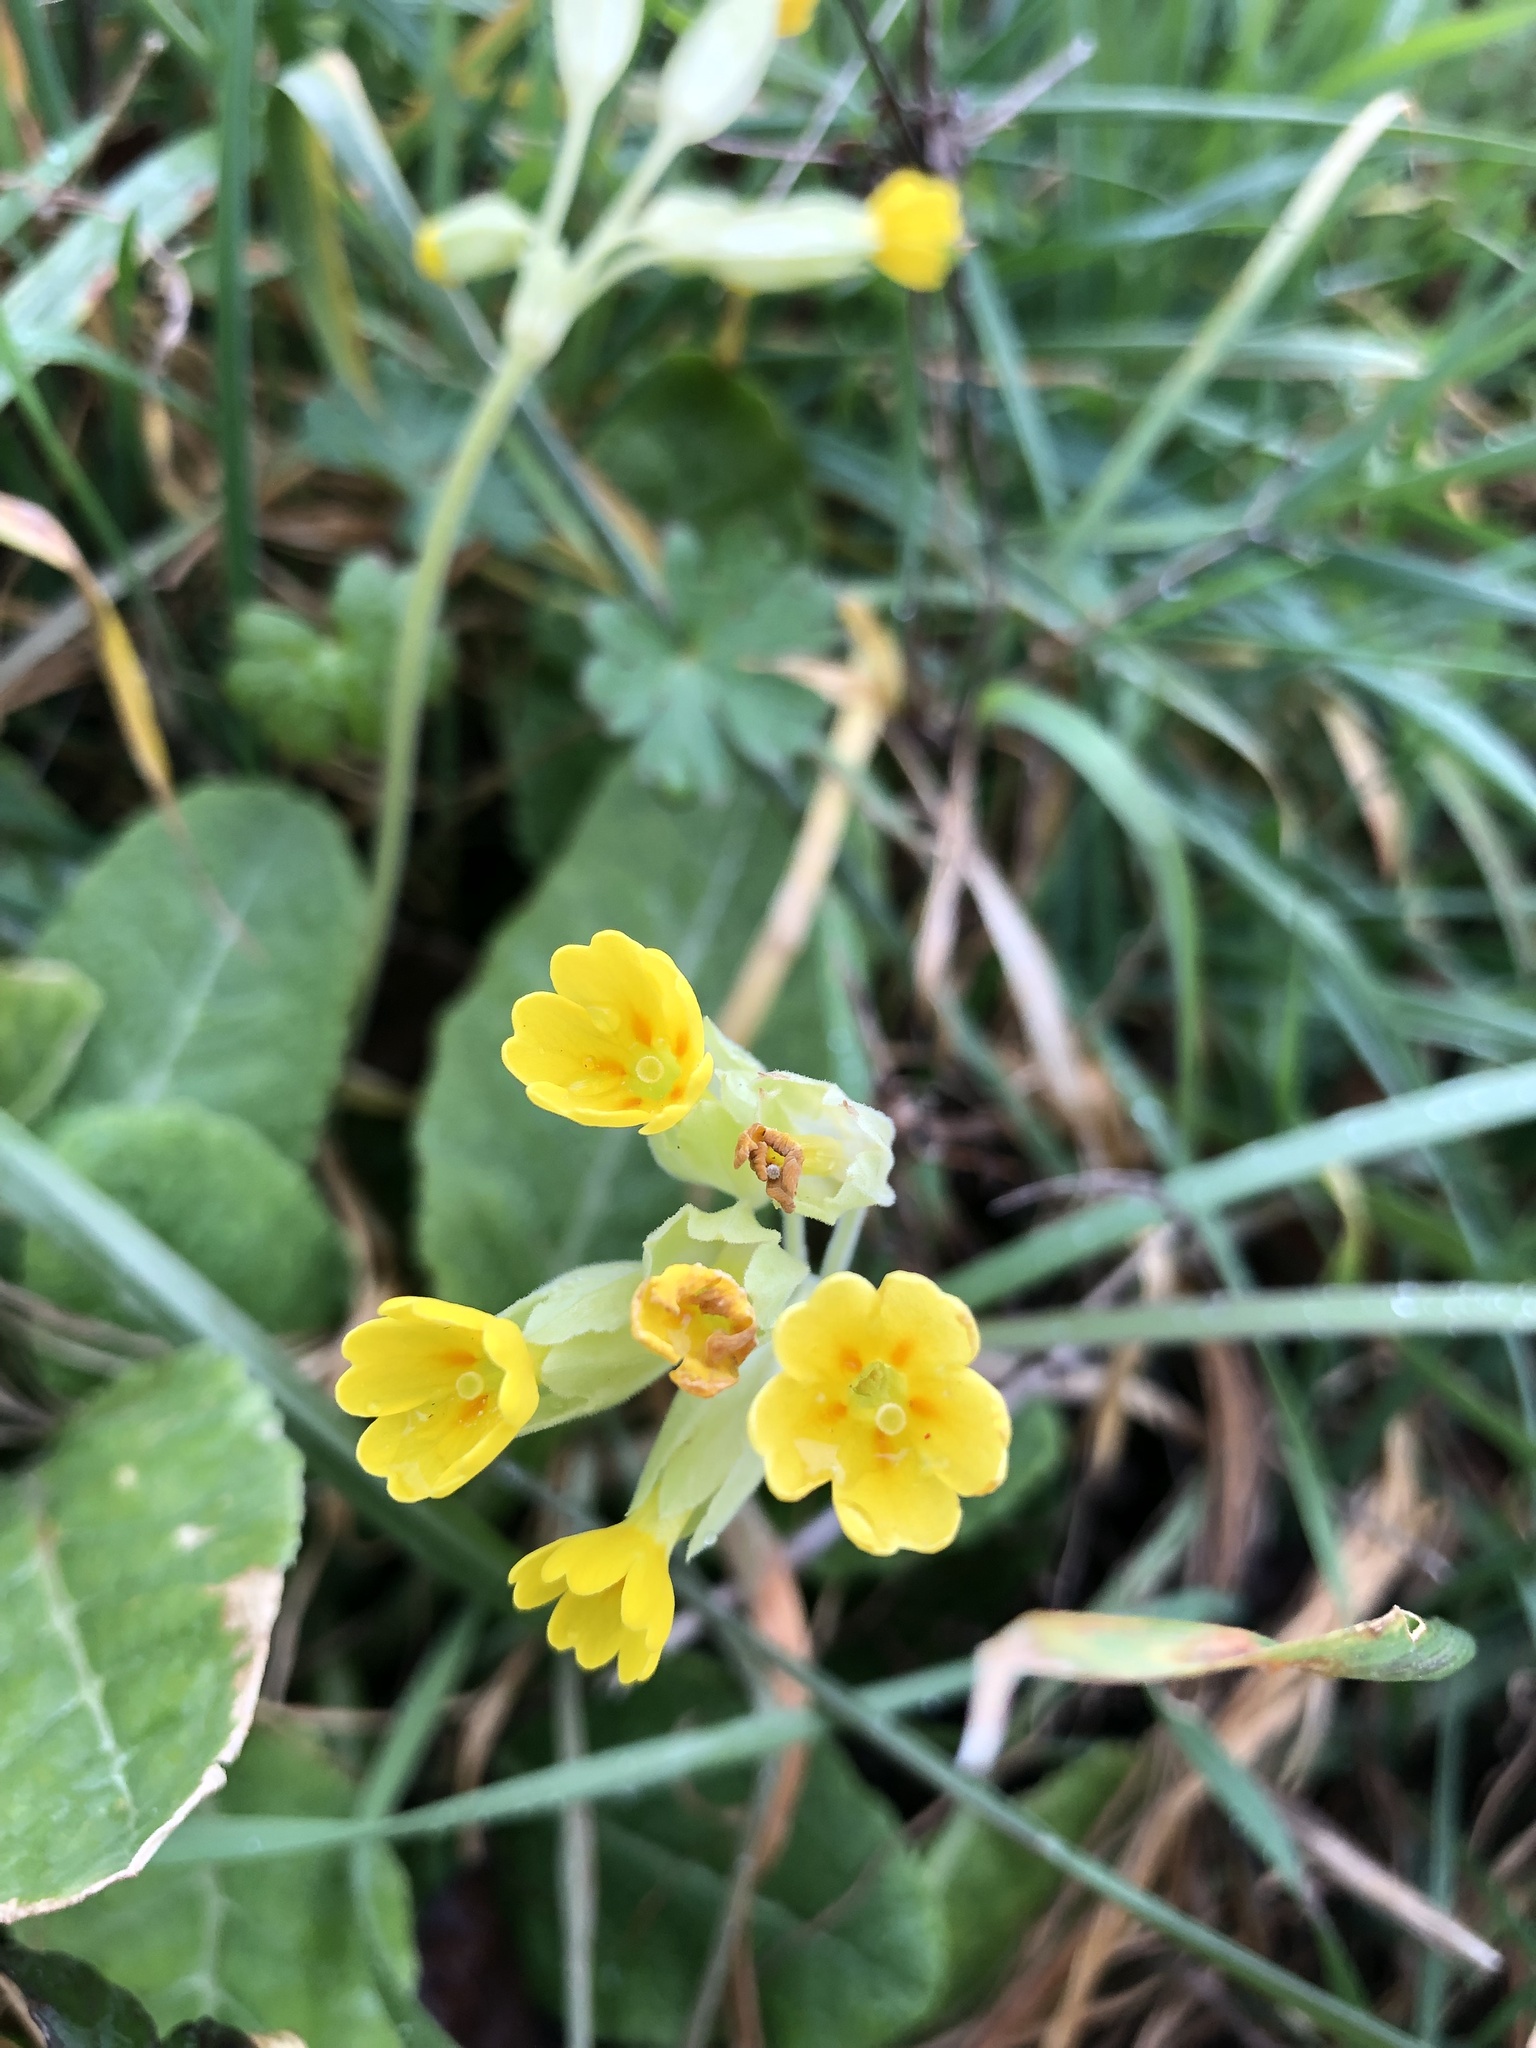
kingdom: Plantae
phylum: Tracheophyta
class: Magnoliopsida
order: Ericales
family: Primulaceae
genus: Primula
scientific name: Primula veris
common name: Cowslip
